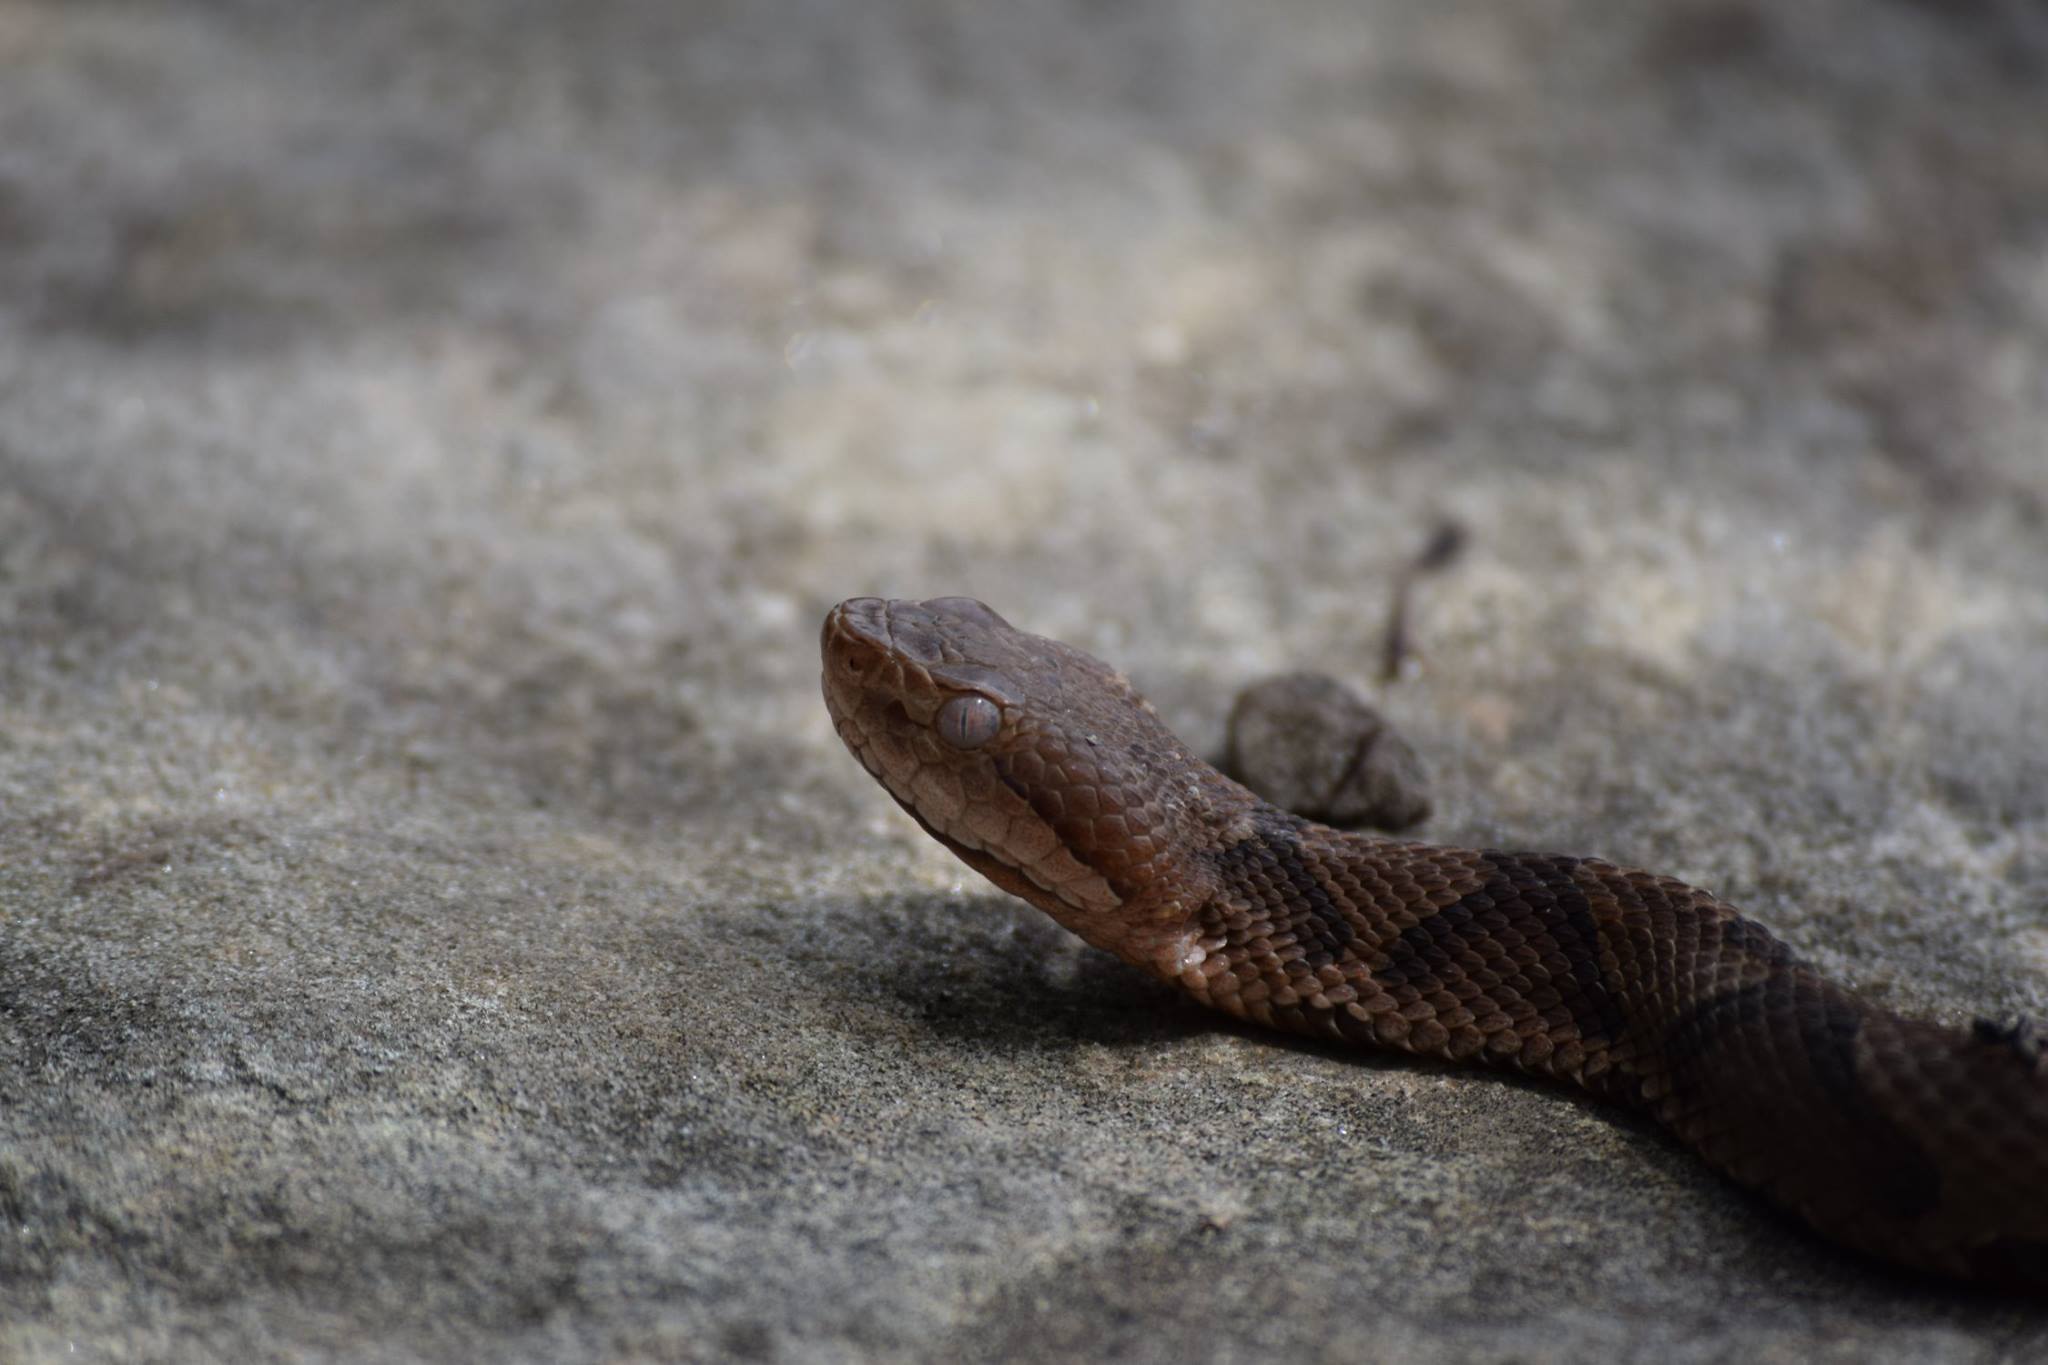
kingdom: Animalia
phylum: Chordata
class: Squamata
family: Viperidae
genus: Agkistrodon
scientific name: Agkistrodon contortrix
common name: Northern copperhead
